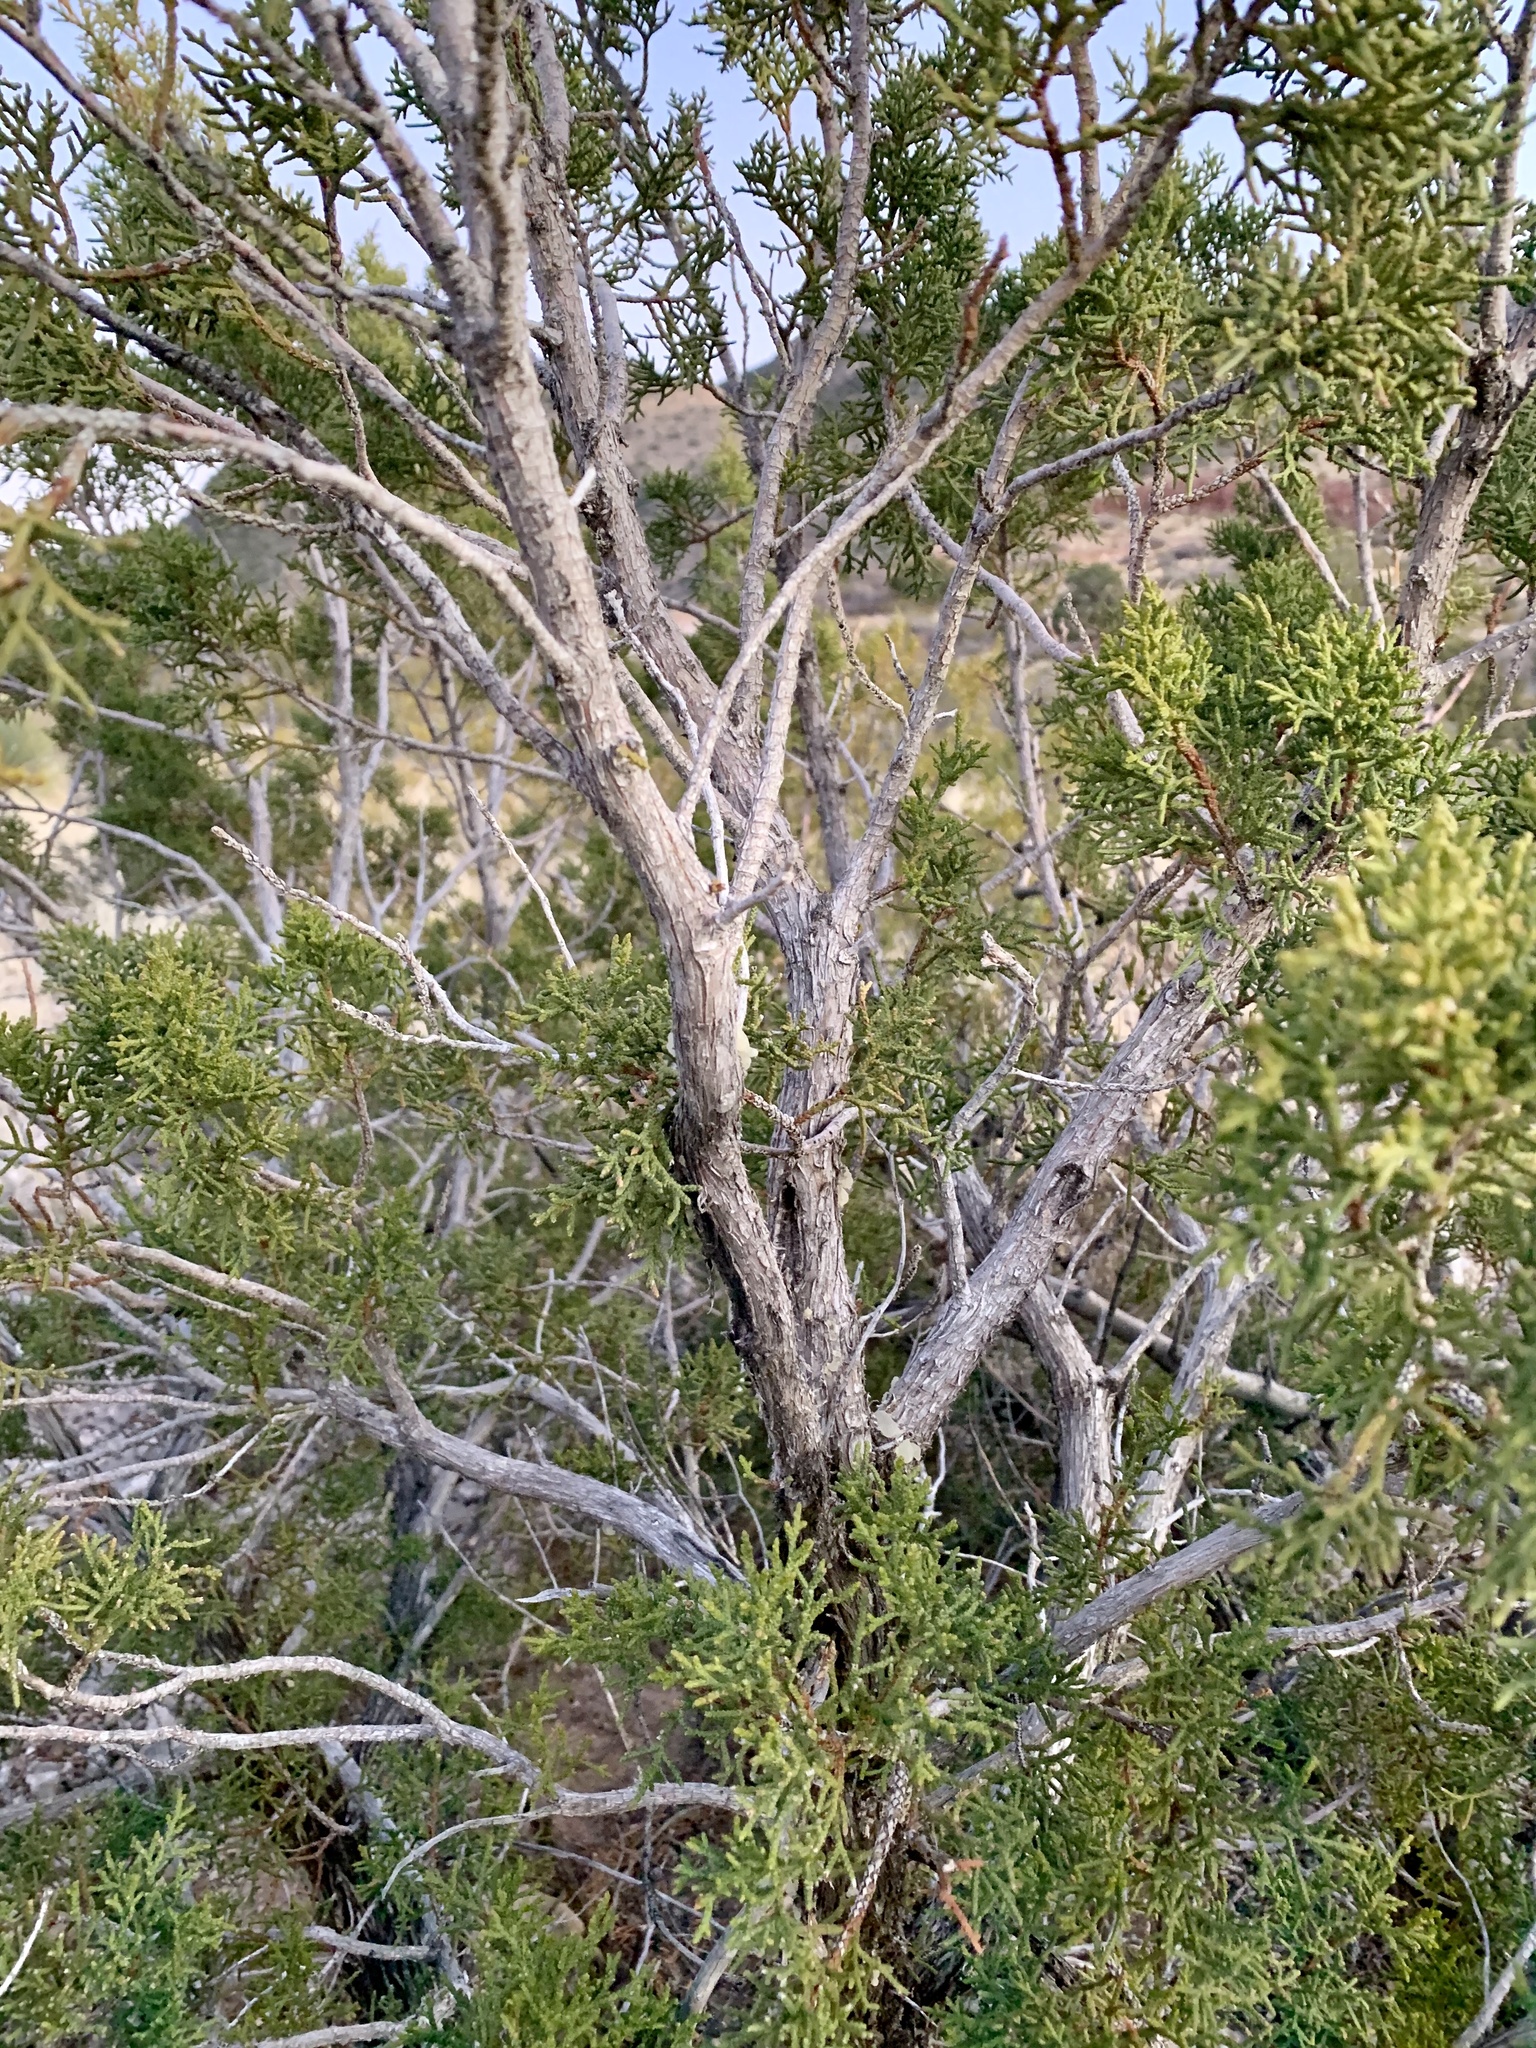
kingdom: Plantae
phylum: Tracheophyta
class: Pinopsida
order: Pinales
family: Cupressaceae
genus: Juniperus
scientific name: Juniperus monosperma
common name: One-seed juniper
